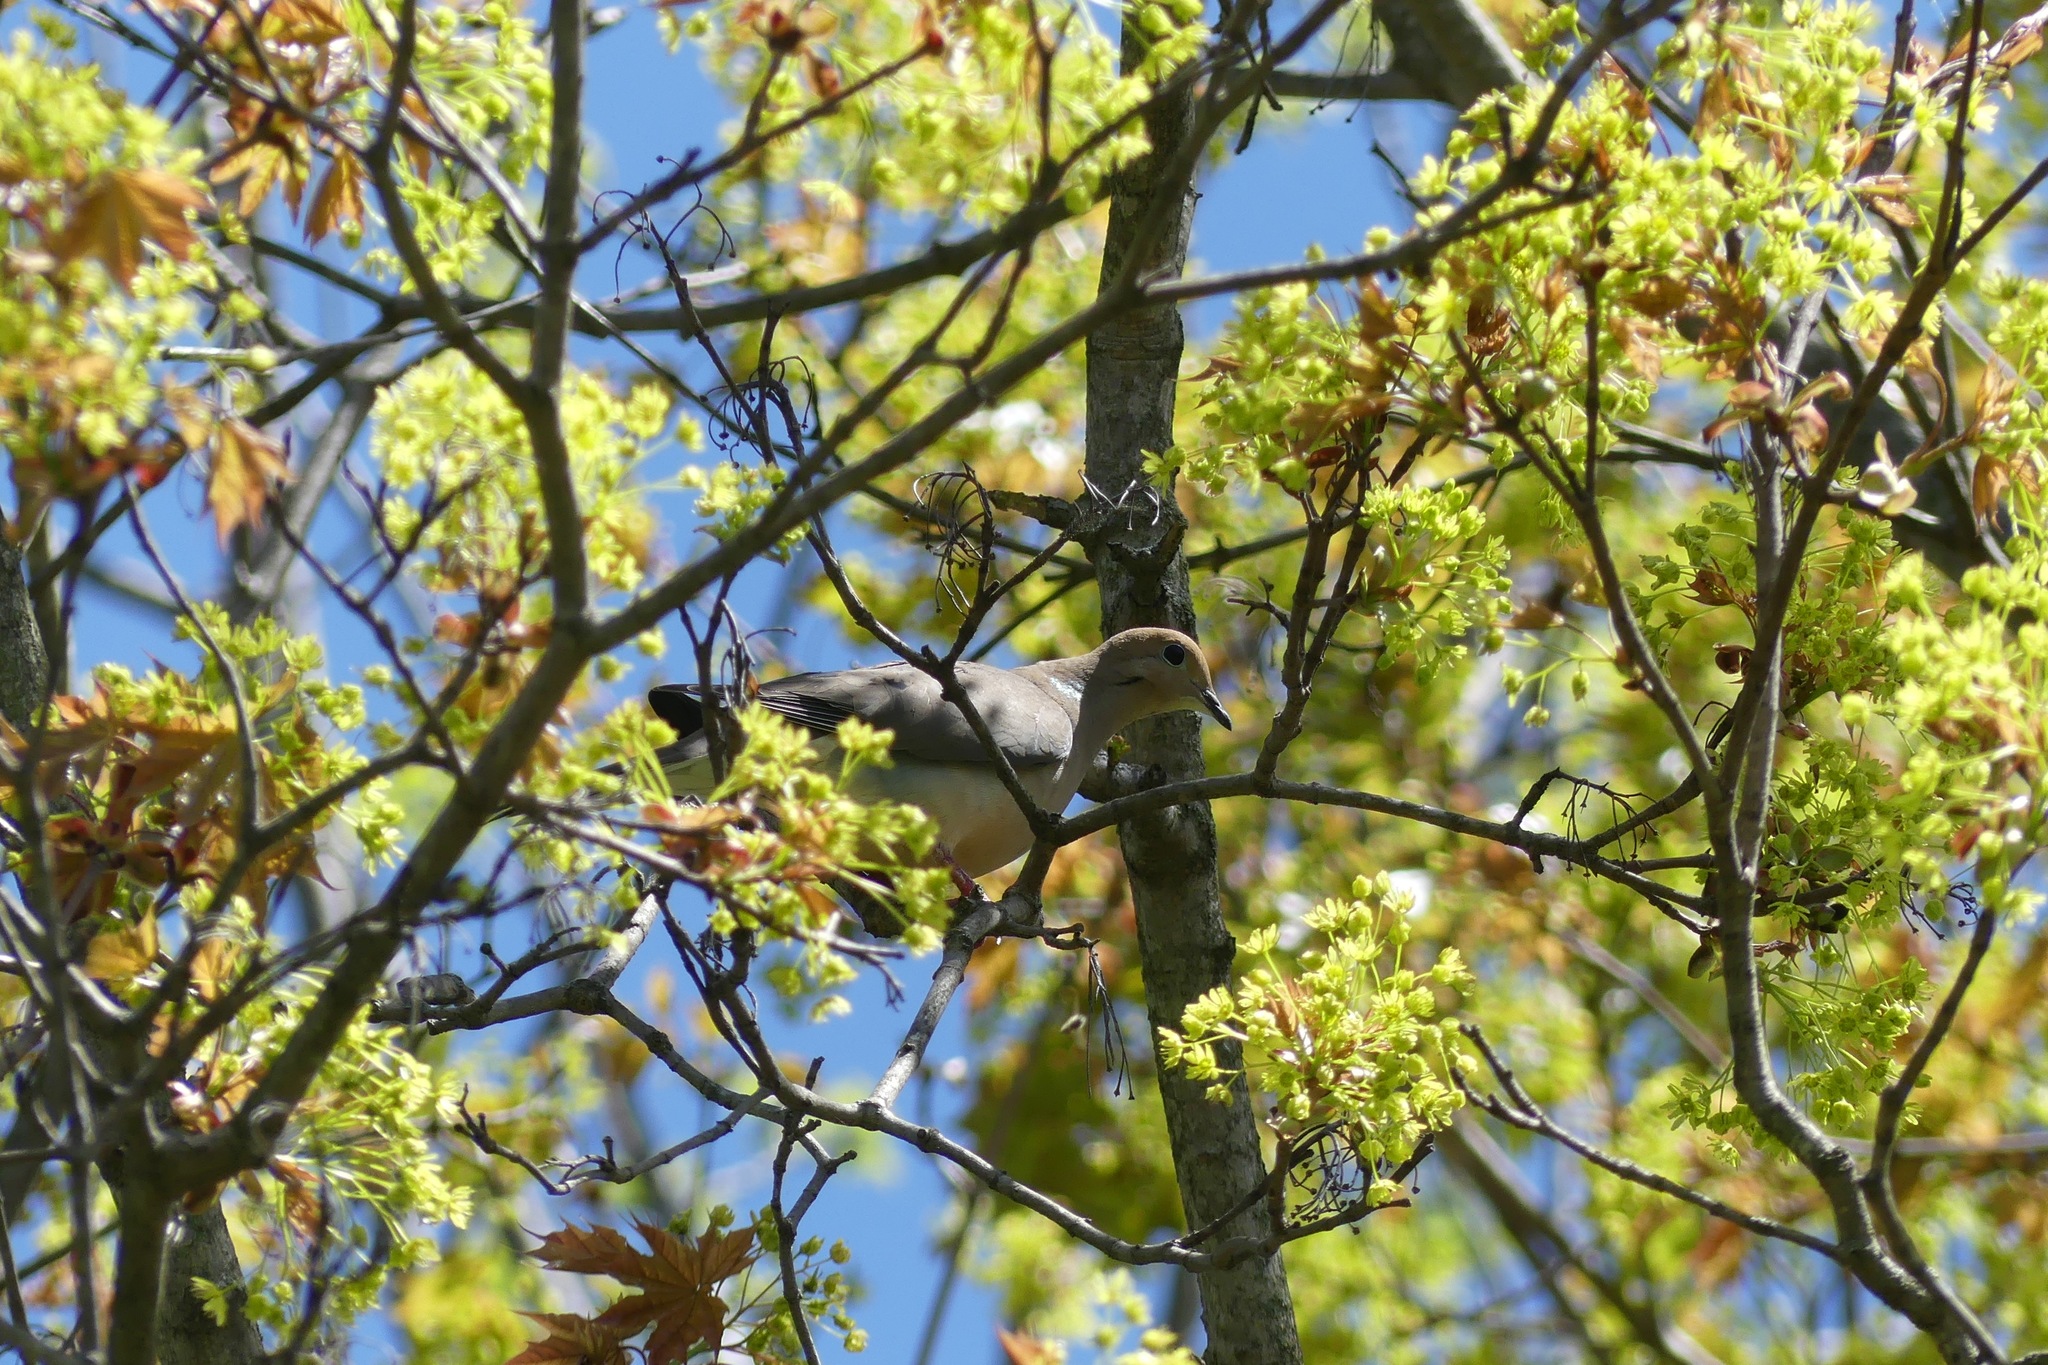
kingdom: Animalia
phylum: Chordata
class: Aves
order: Columbiformes
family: Columbidae
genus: Zenaida
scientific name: Zenaida macroura
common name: Mourning dove
